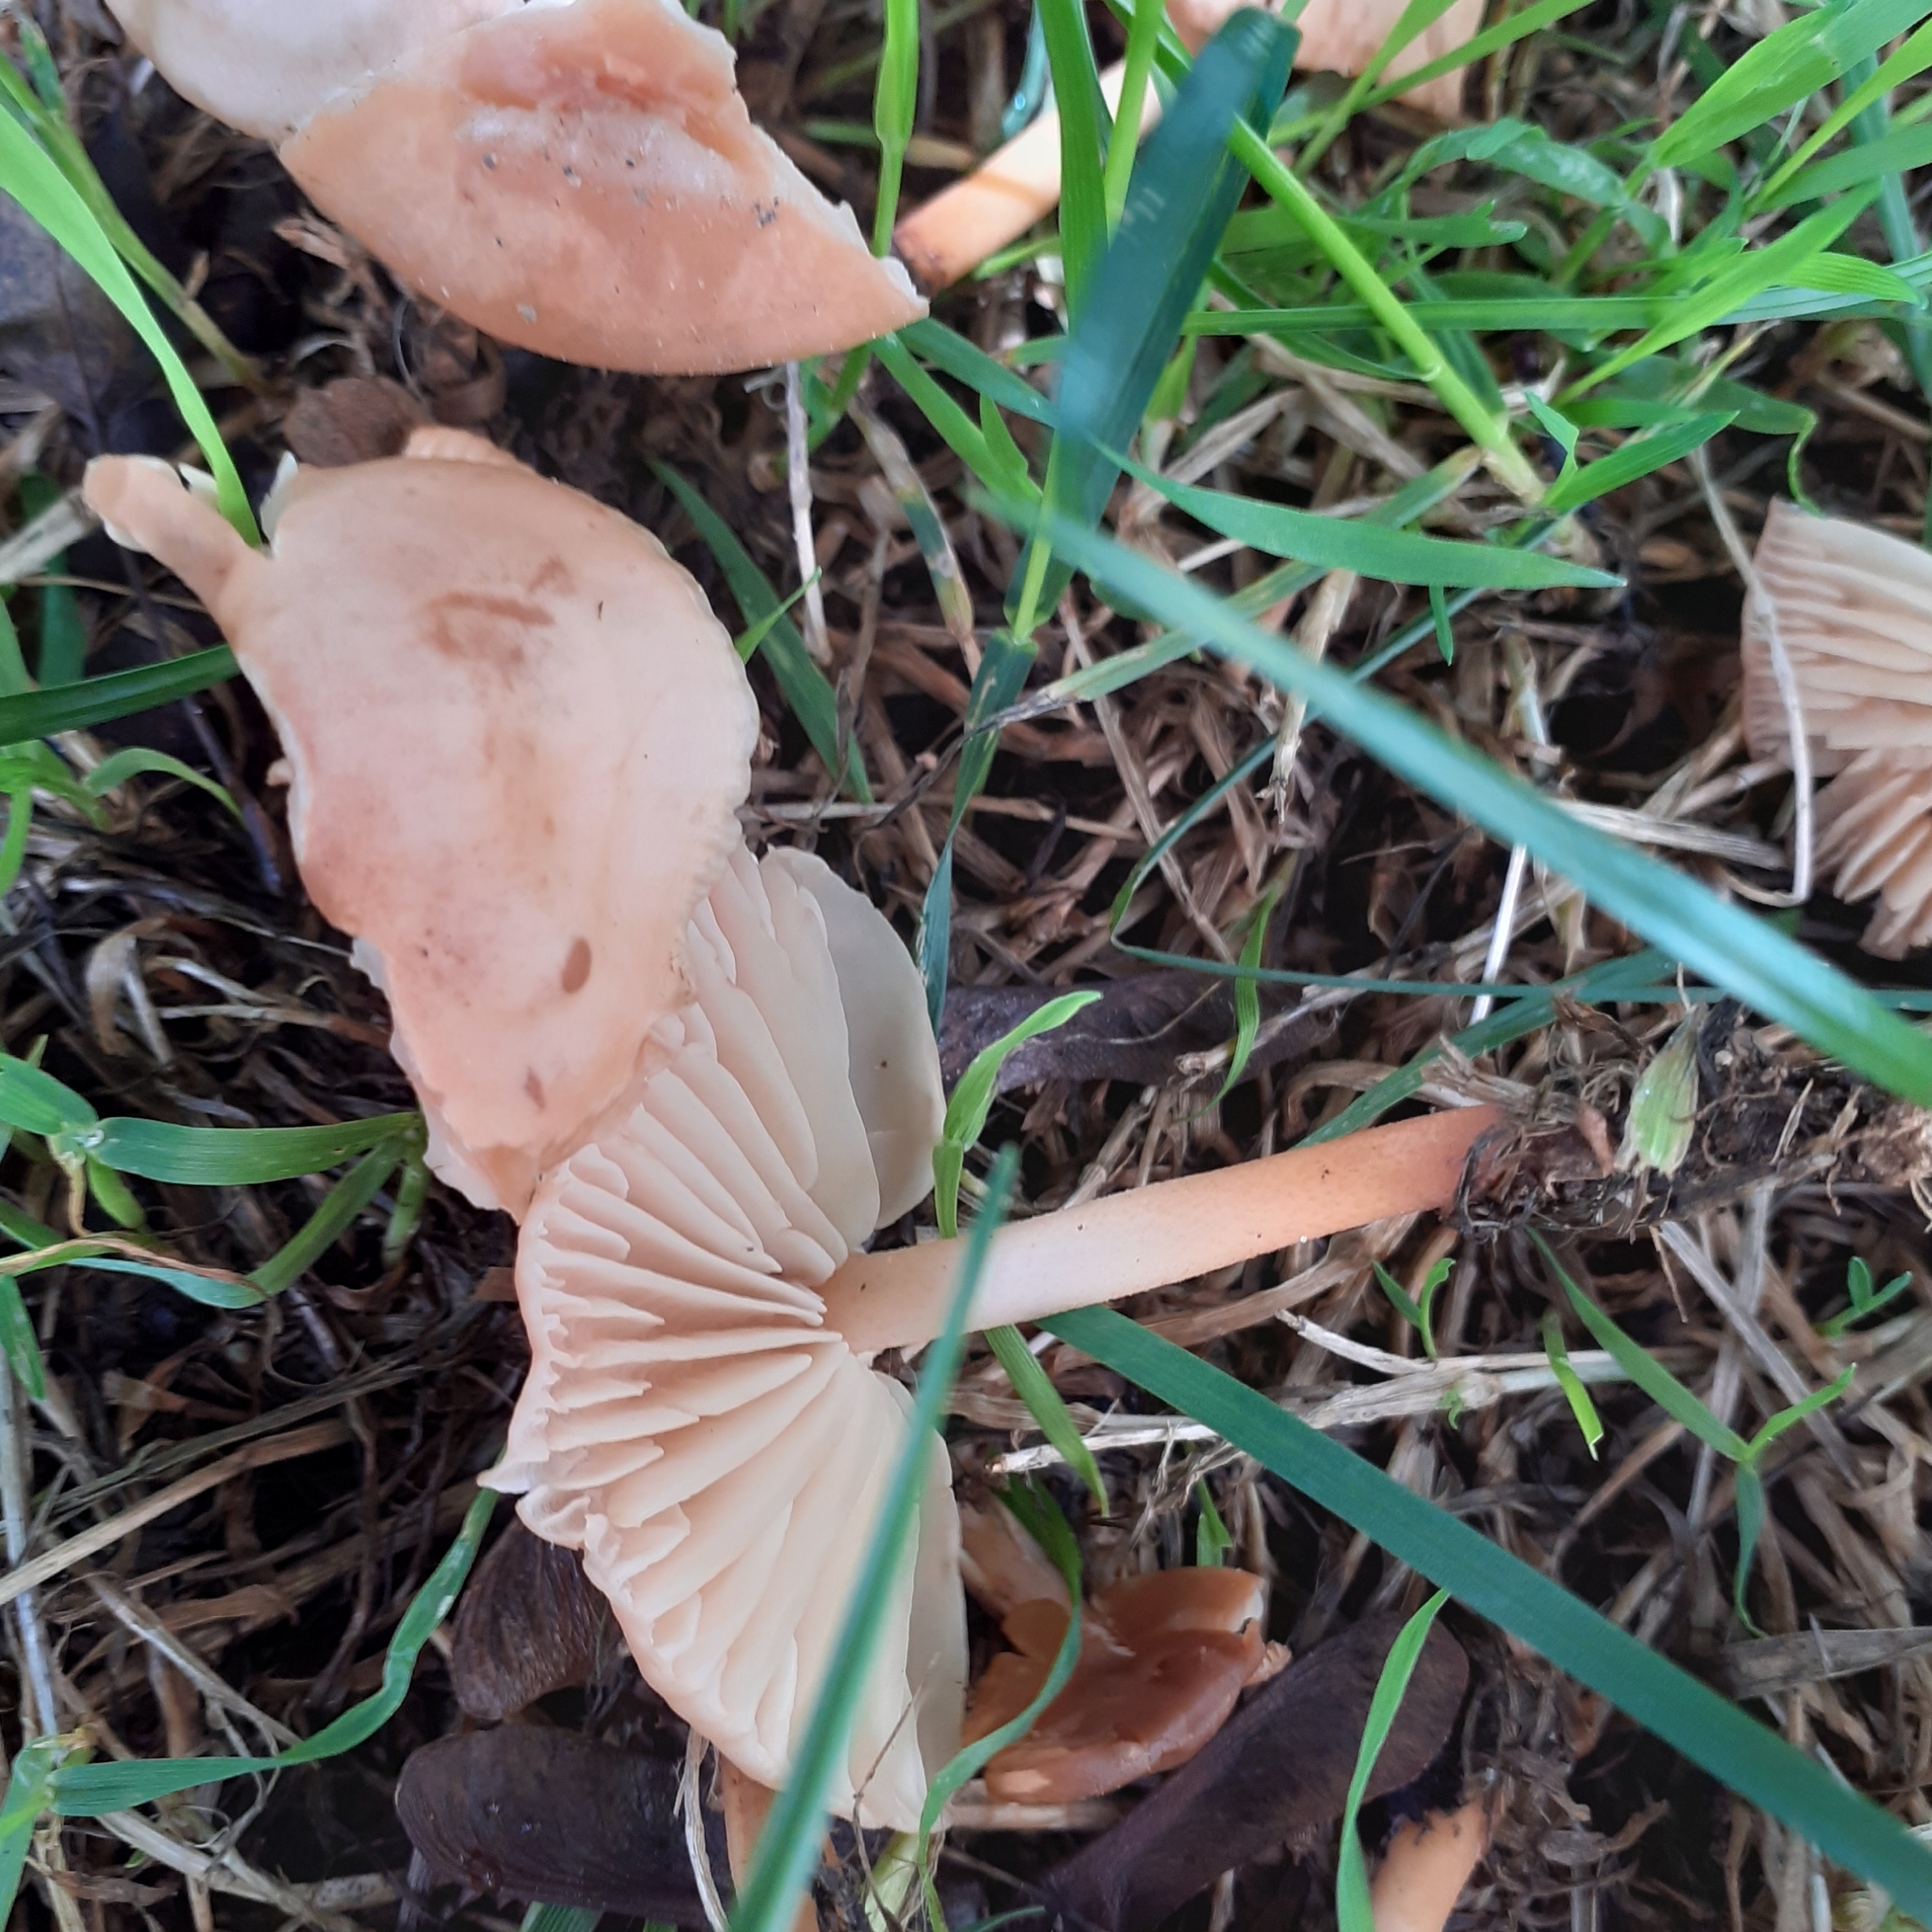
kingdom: Fungi
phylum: Basidiomycota
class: Agaricomycetes
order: Agaricales
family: Marasmiaceae
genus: Marasmius
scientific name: Marasmius oreades
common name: Fairy ring champignon
